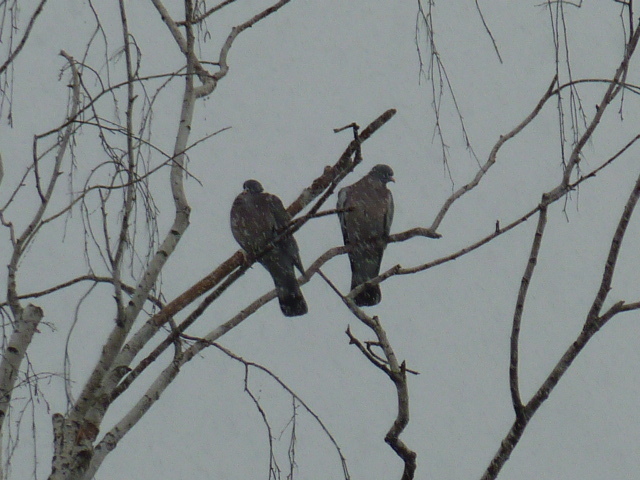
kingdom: Animalia
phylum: Chordata
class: Aves
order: Columbiformes
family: Columbidae
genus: Columba
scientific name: Columba palumbus
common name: Common wood pigeon
